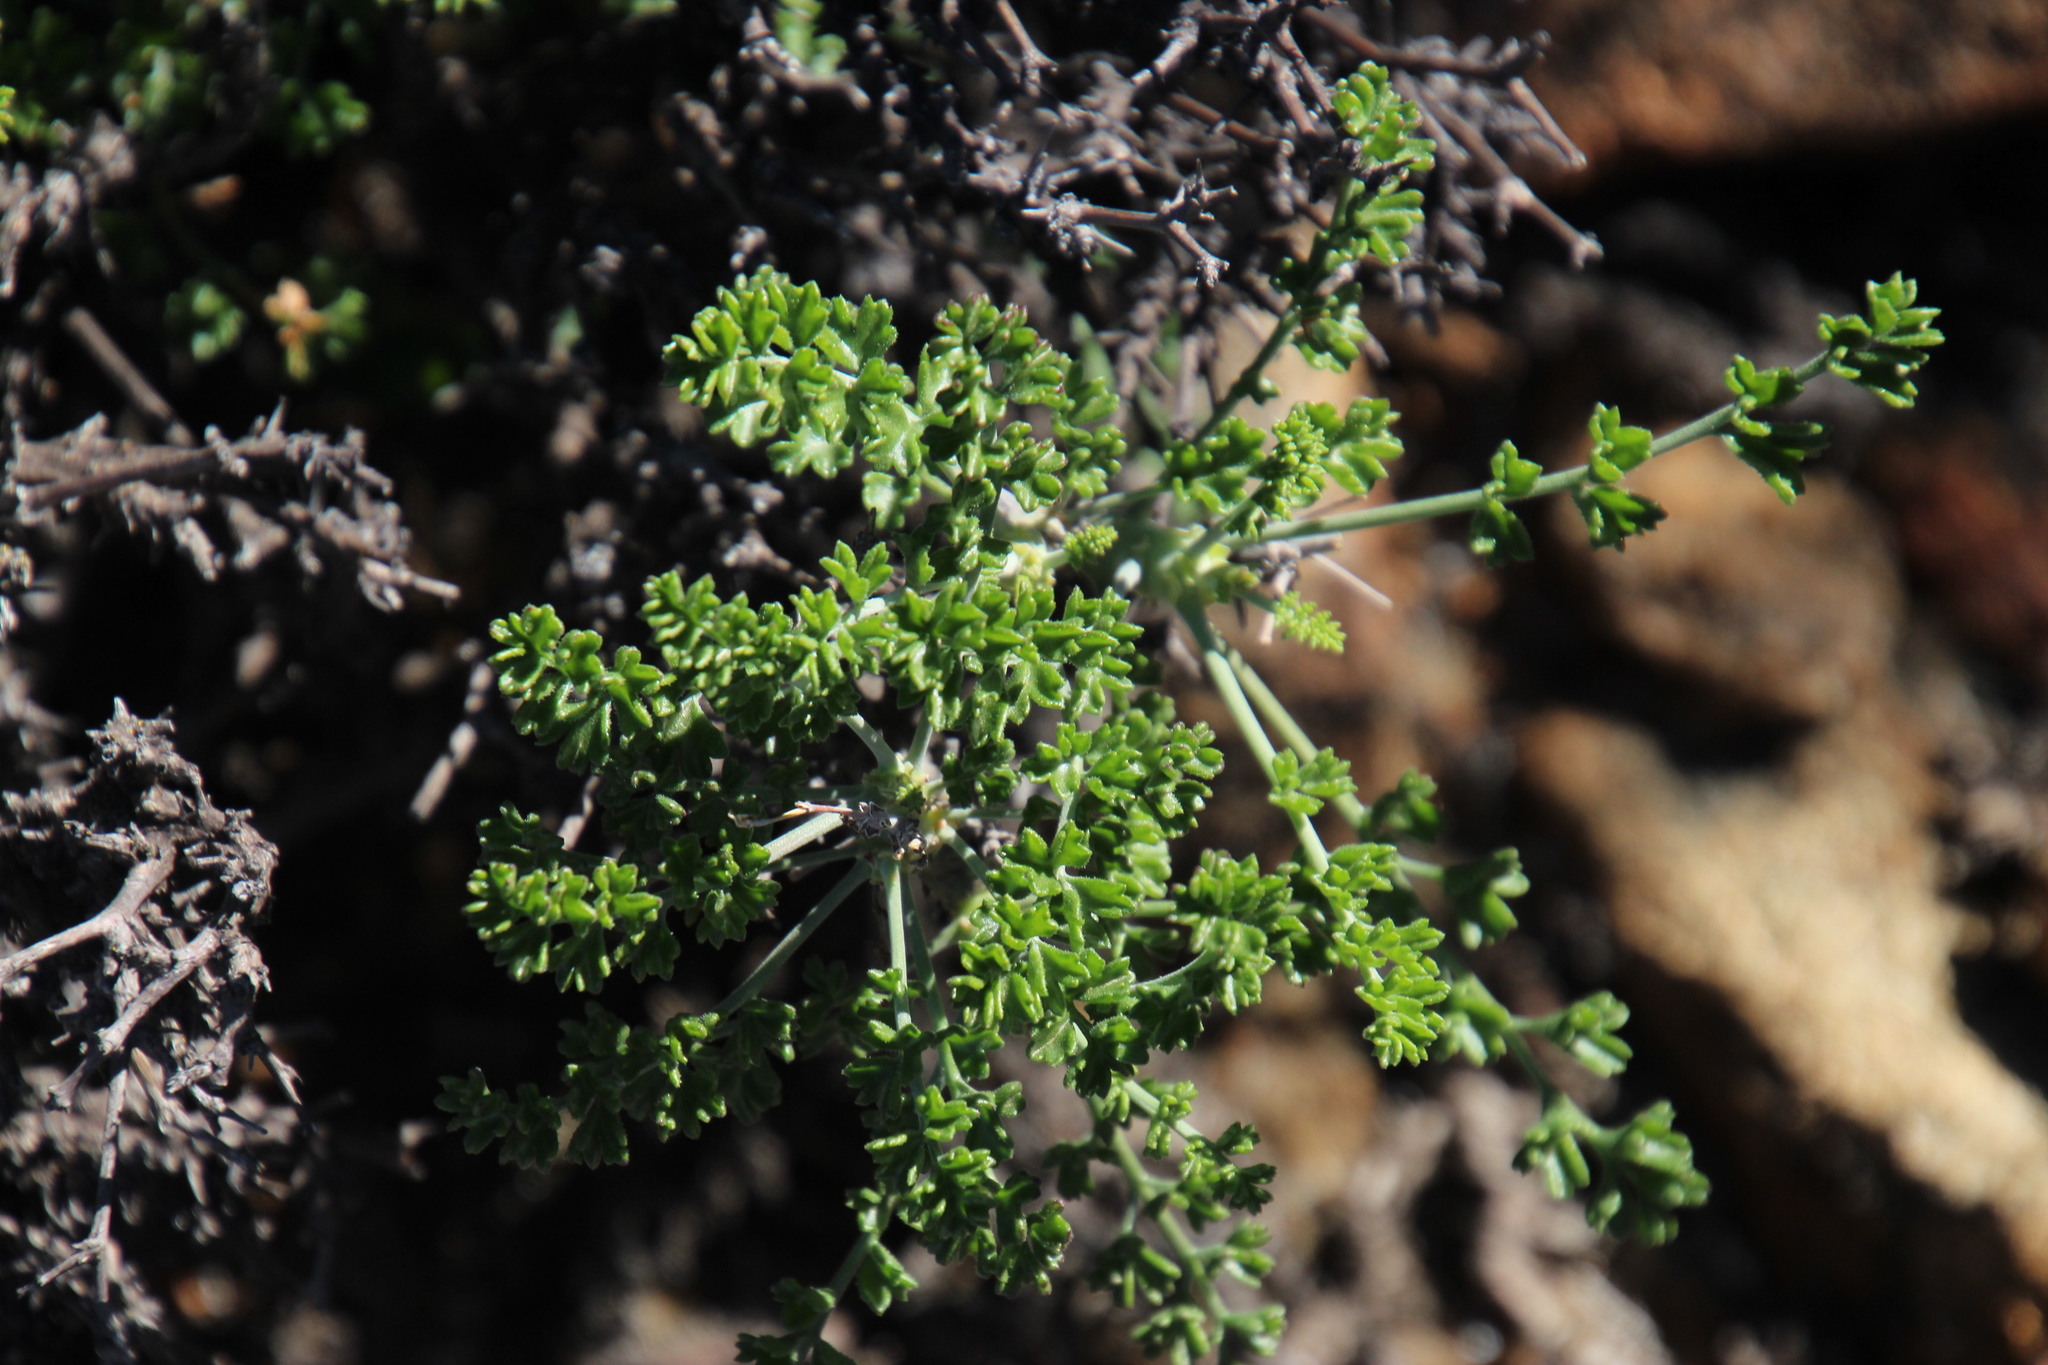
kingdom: Plantae
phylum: Tracheophyta
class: Magnoliopsida
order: Geraniales
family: Geraniaceae
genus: Pelargonium
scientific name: Pelargonium dasyphyllum
